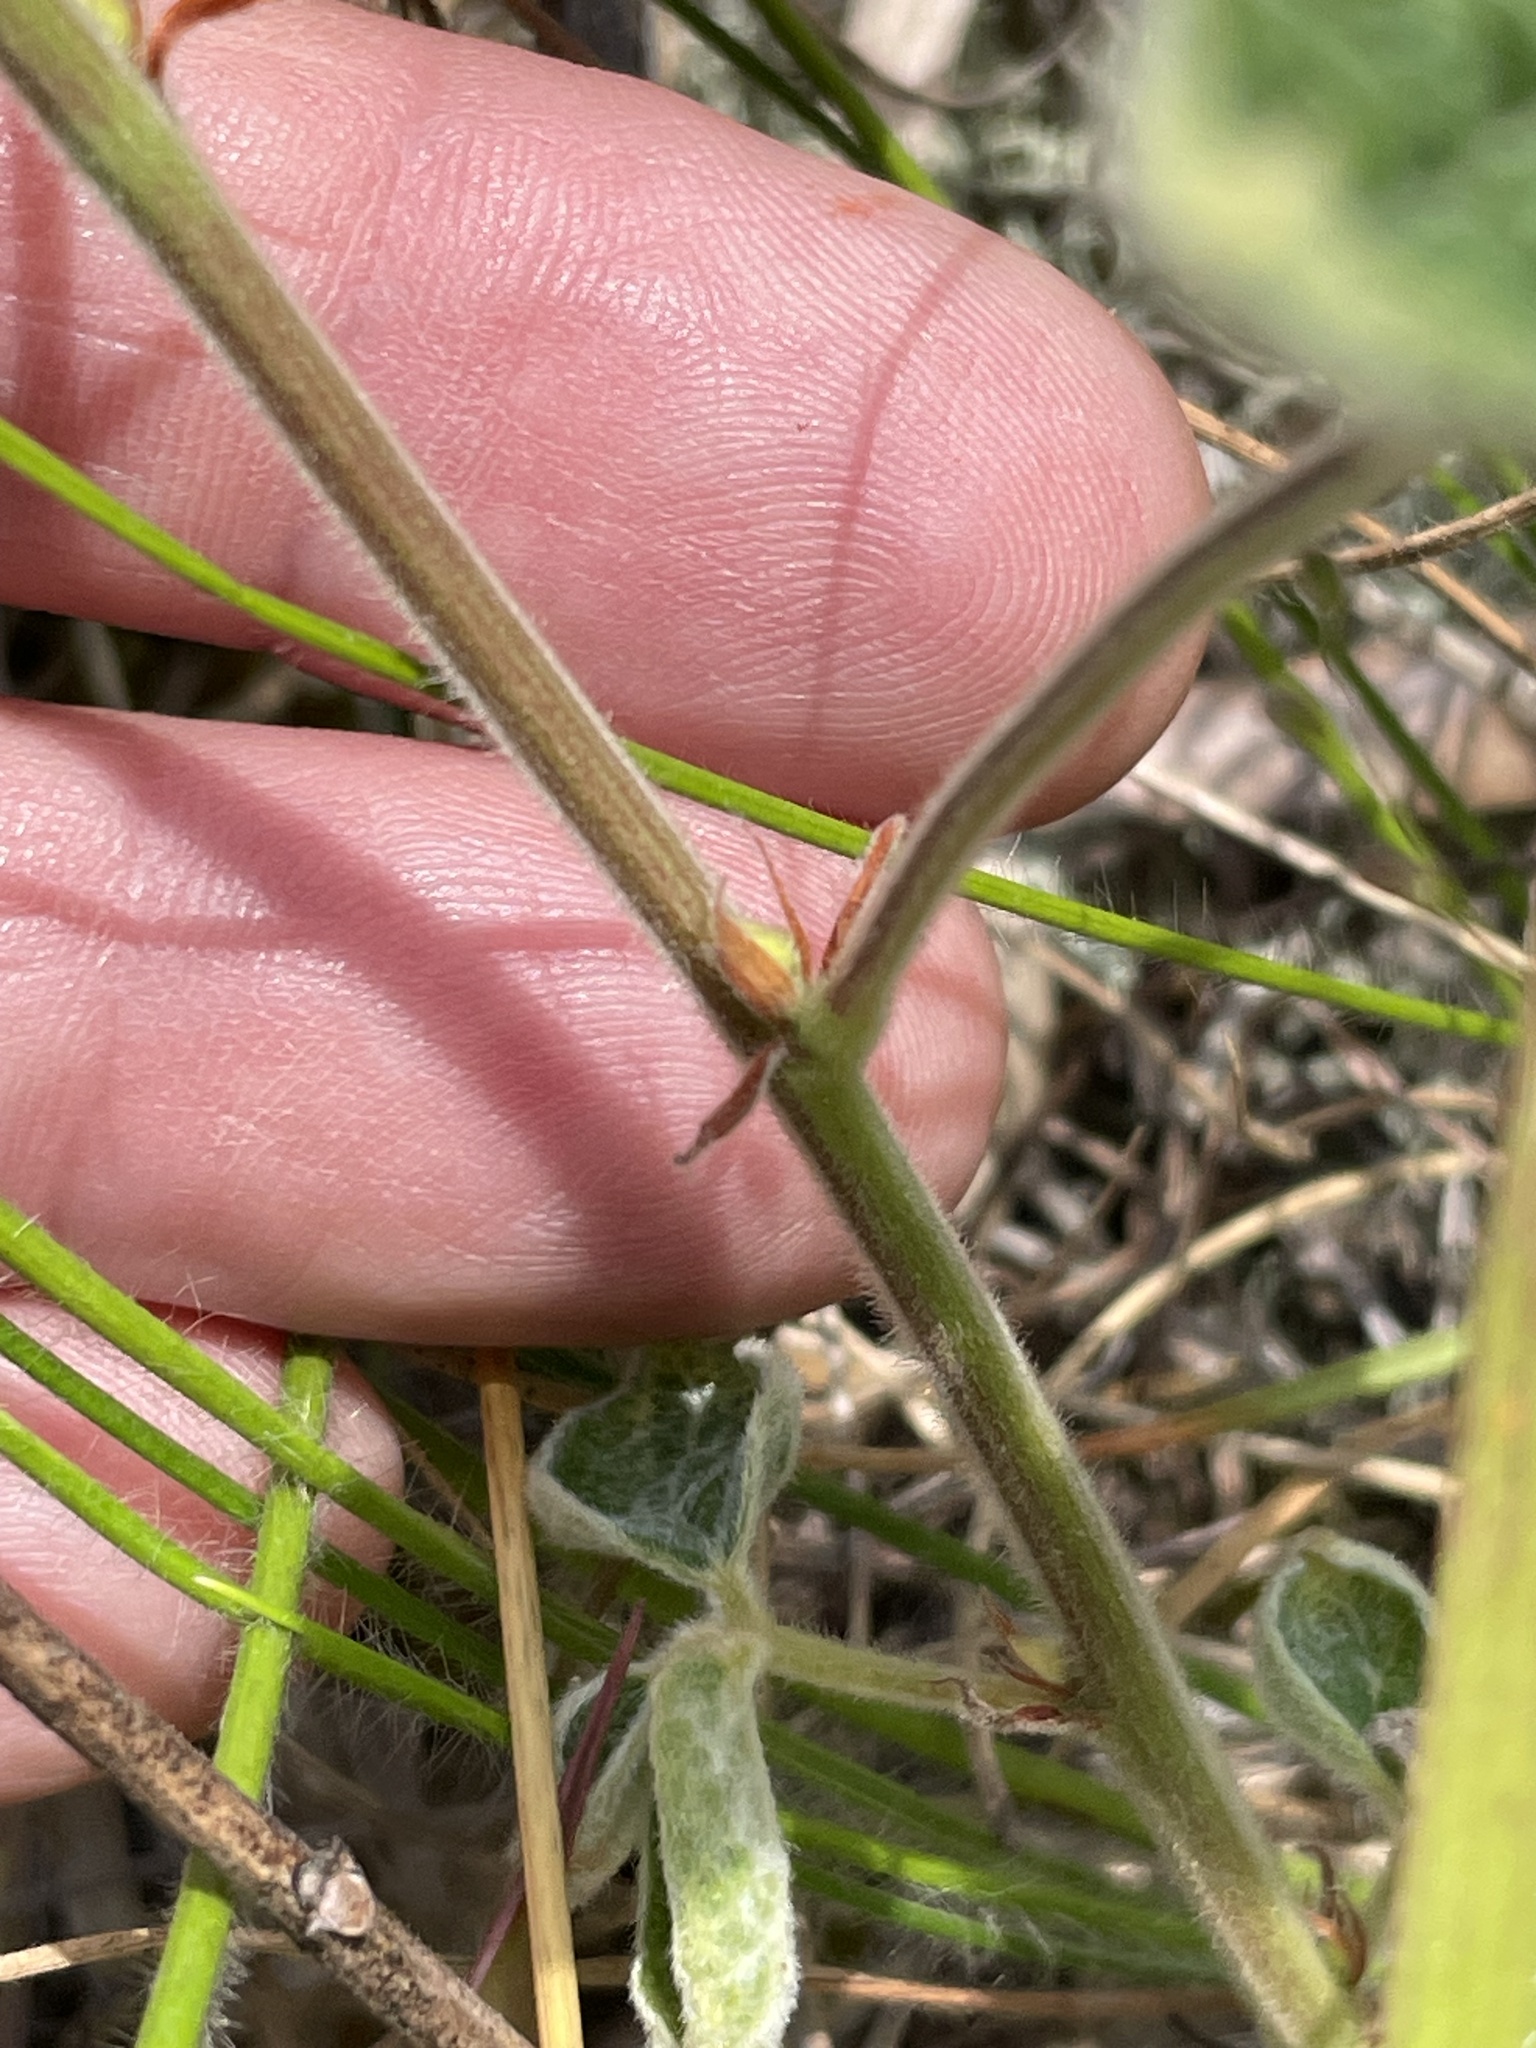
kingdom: Plantae
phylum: Tracheophyta
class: Magnoliopsida
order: Fabales
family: Fabaceae
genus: Rhynchosia
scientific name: Rhynchosia tomentosa
